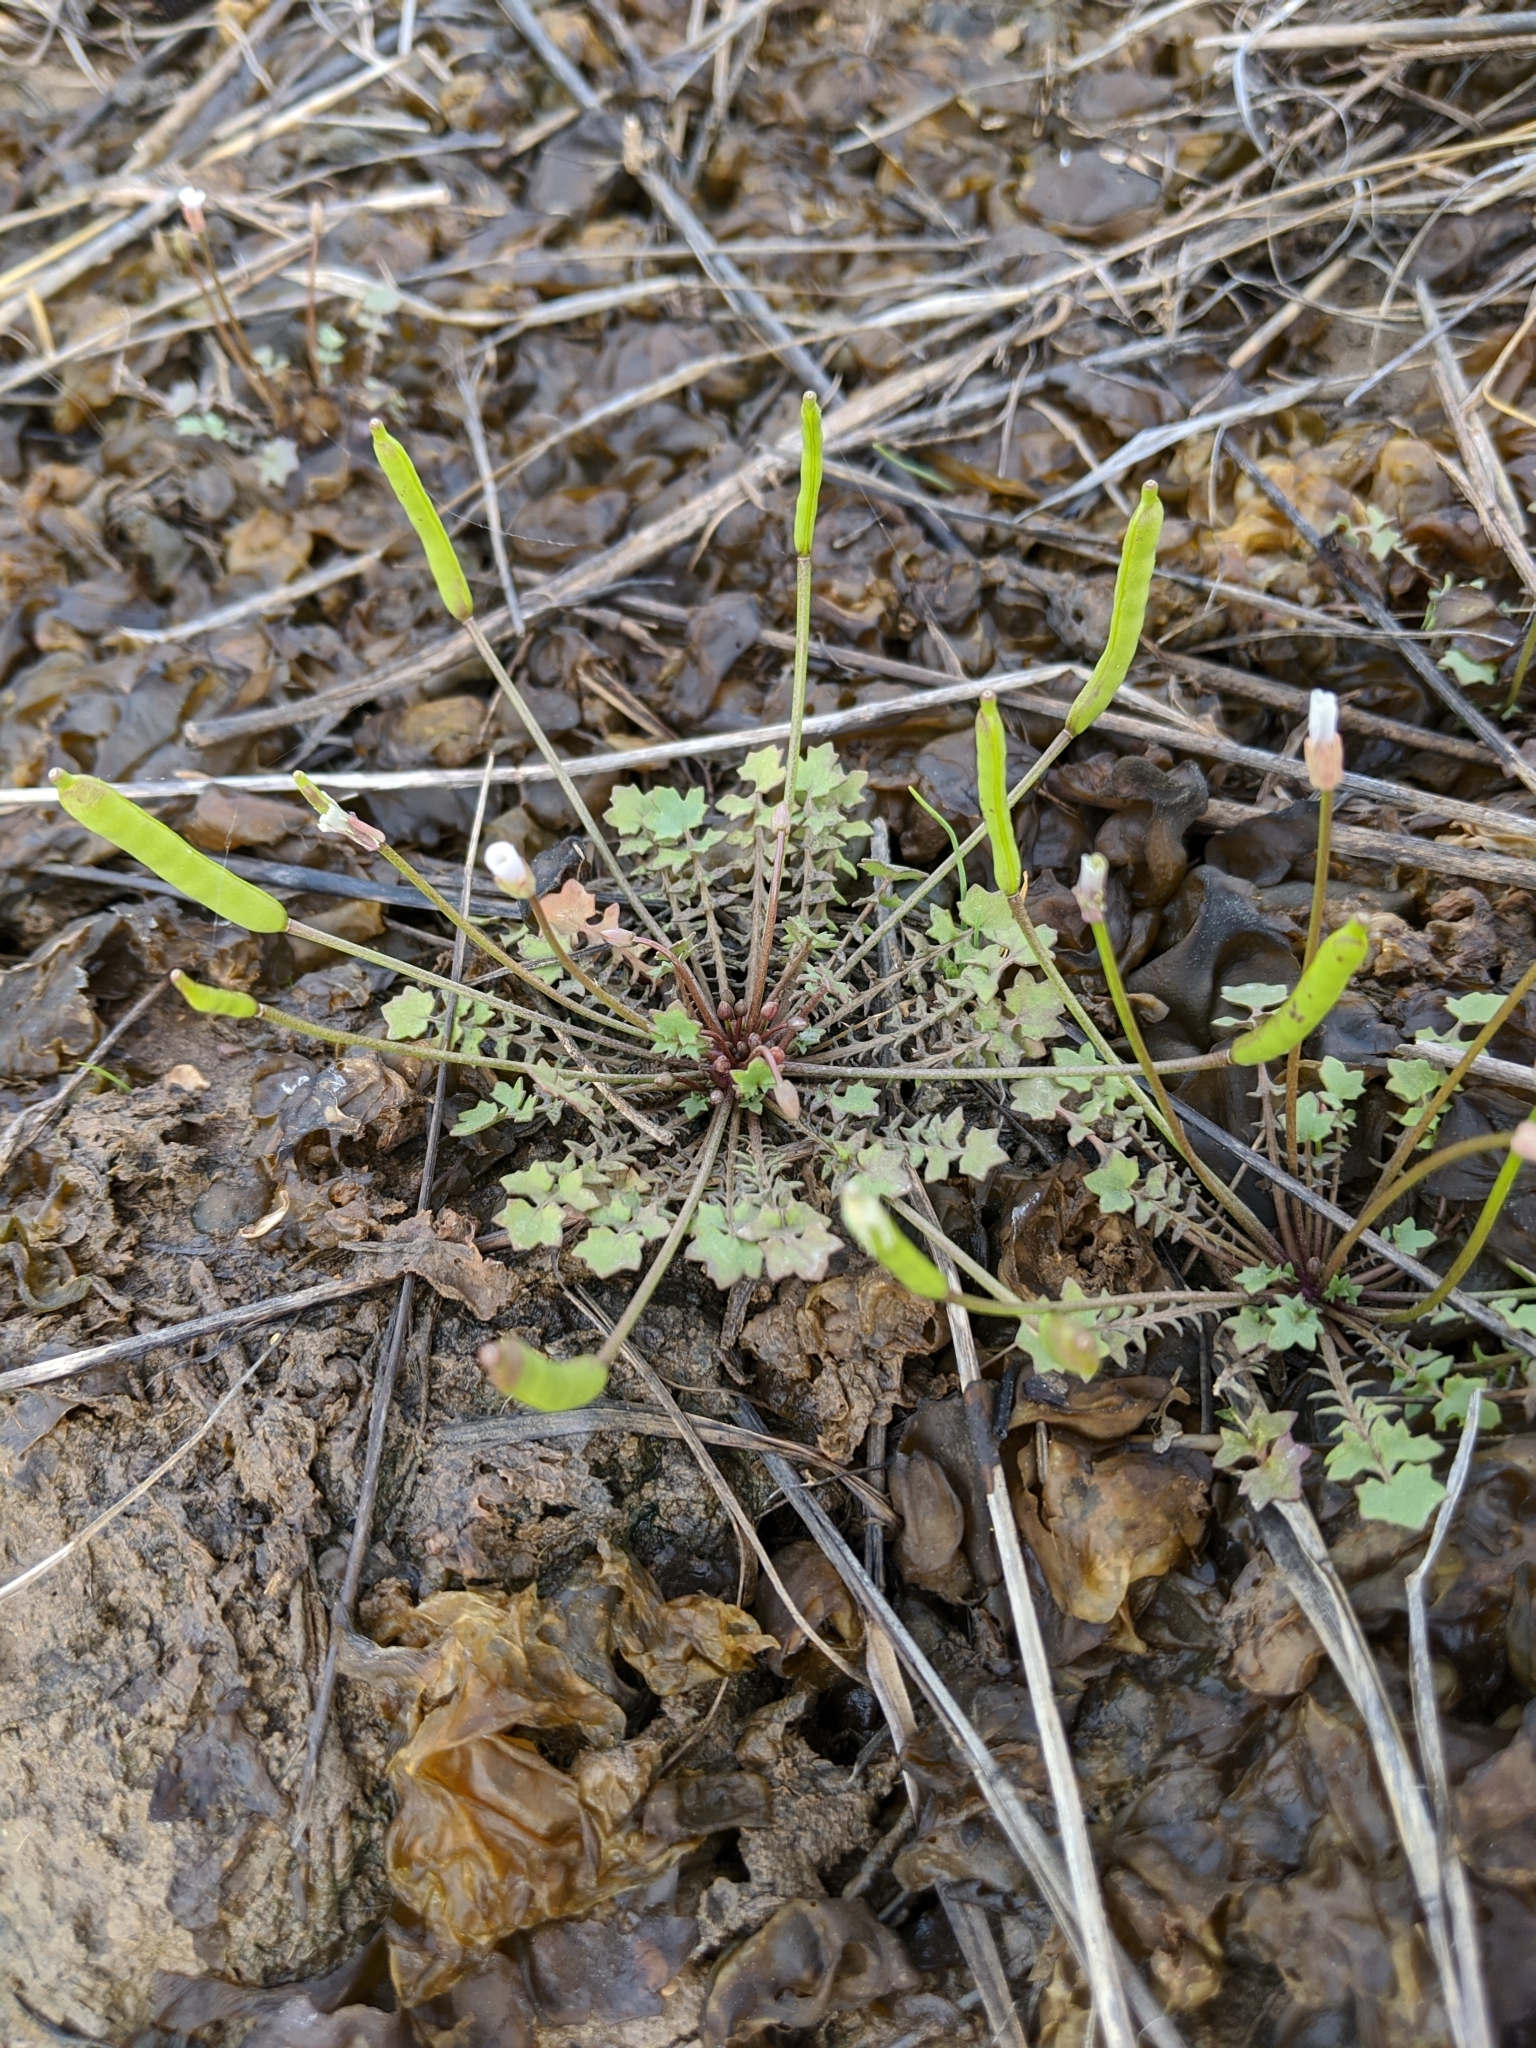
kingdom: Plantae
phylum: Tracheophyta
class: Magnoliopsida
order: Brassicales
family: Brassicaceae
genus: Leavenworthia
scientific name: Leavenworthia uniflora
